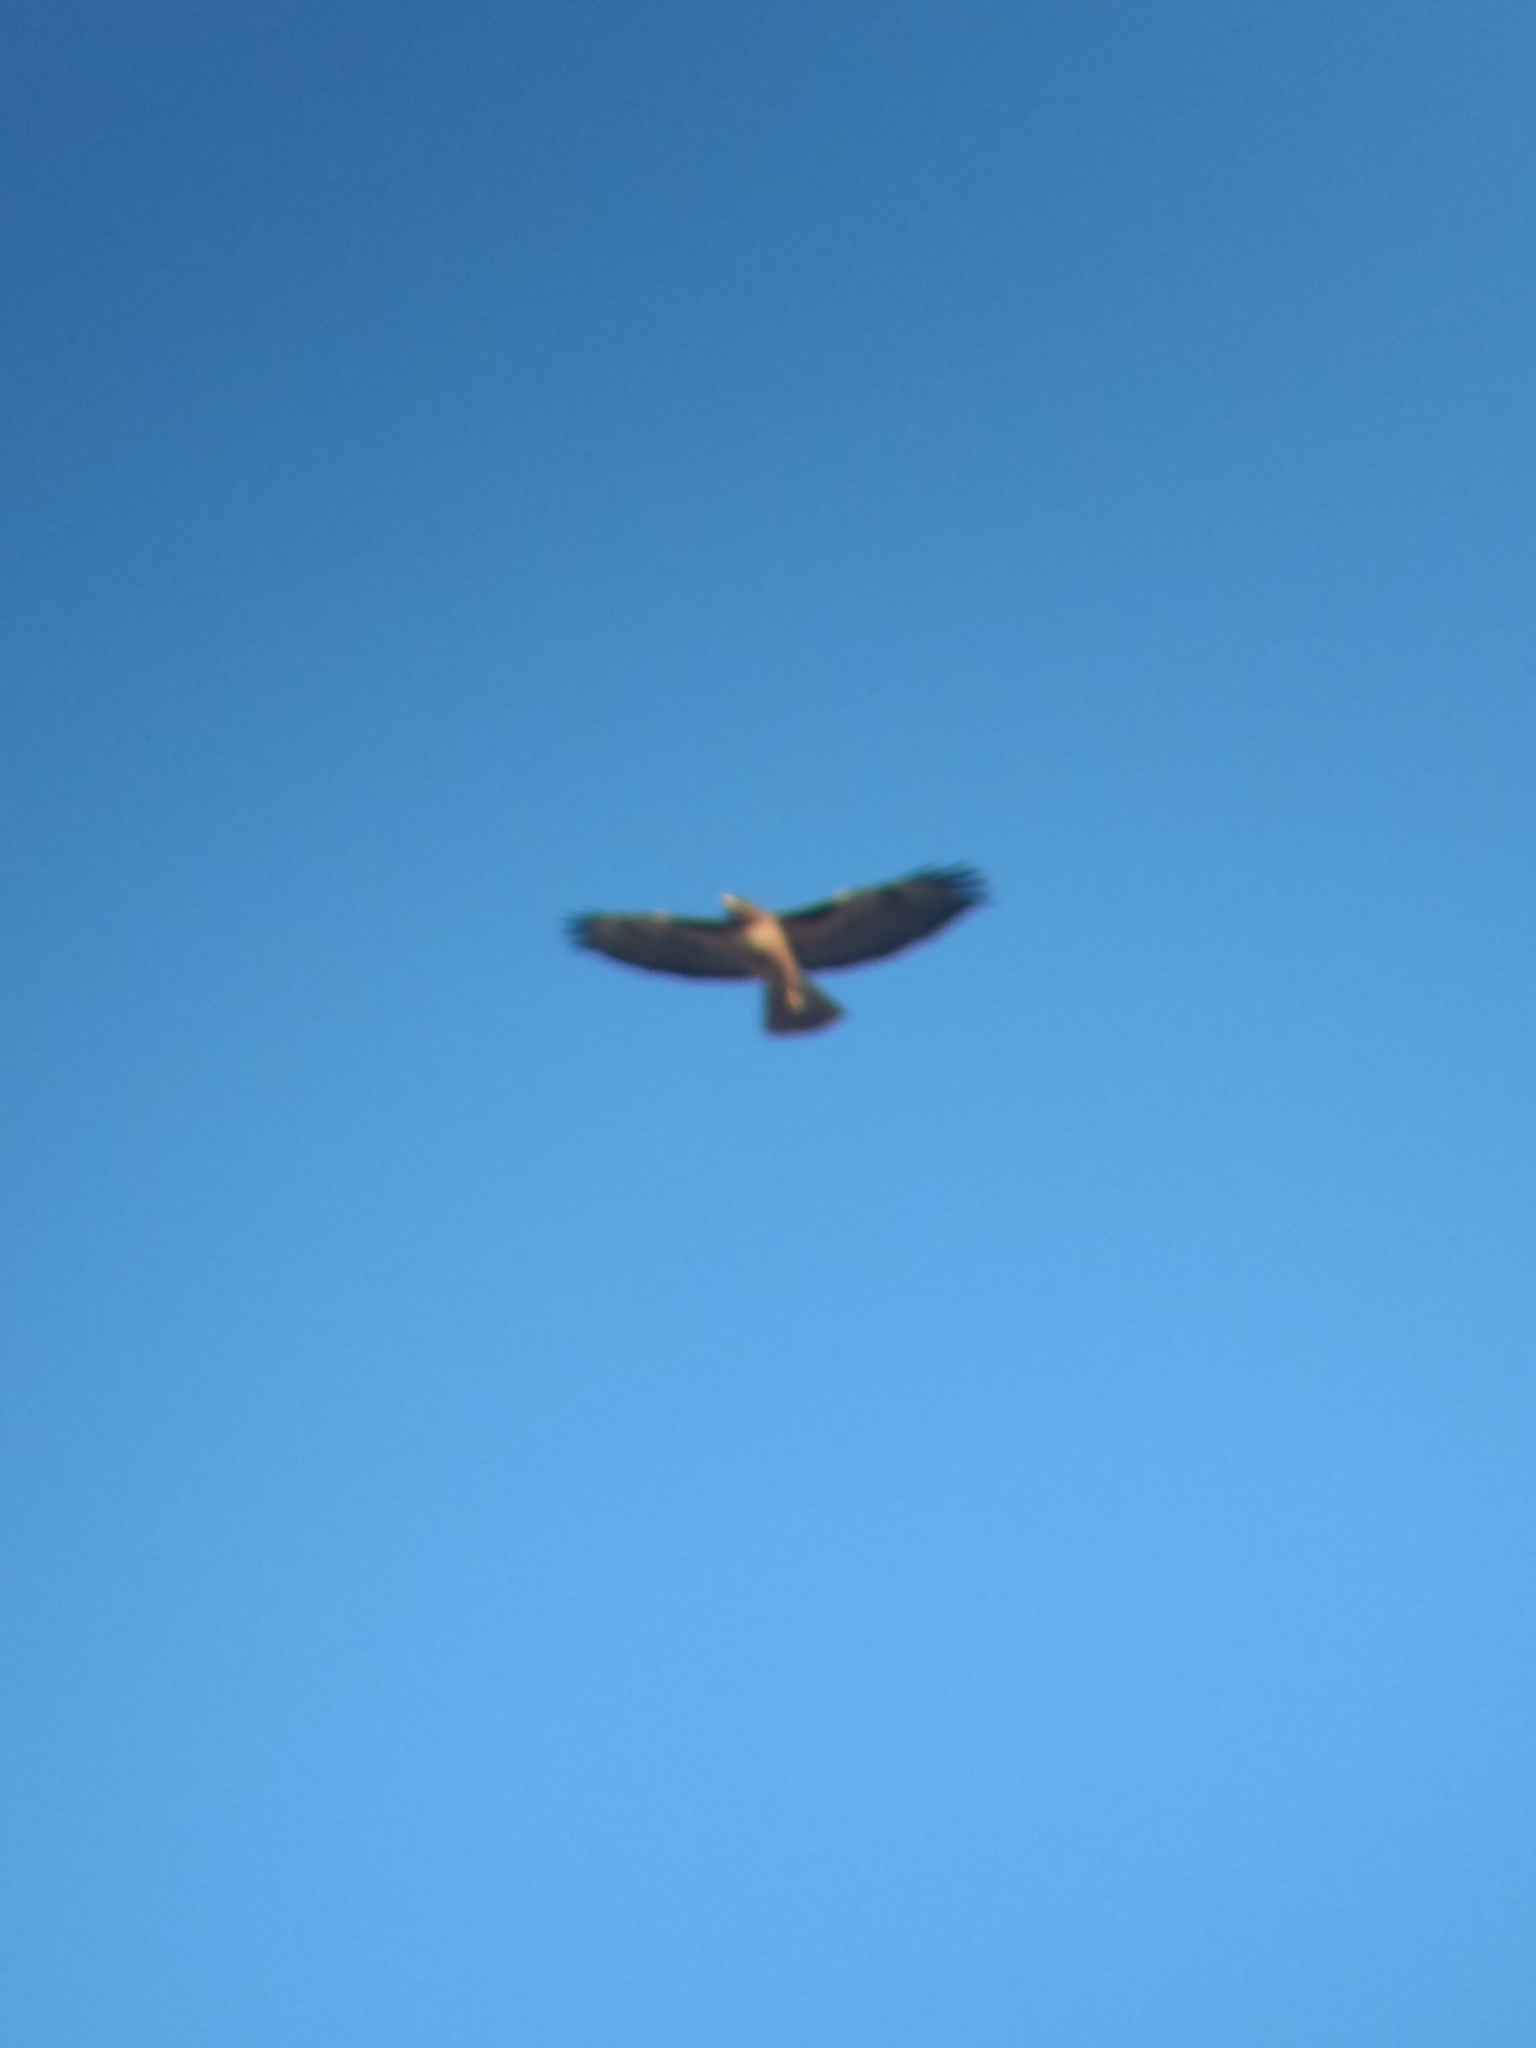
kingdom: Animalia
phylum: Chordata
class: Aves
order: Accipitriformes
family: Accipitridae
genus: Buteo
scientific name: Buteo jamaicensis
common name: Red-tailed hawk
